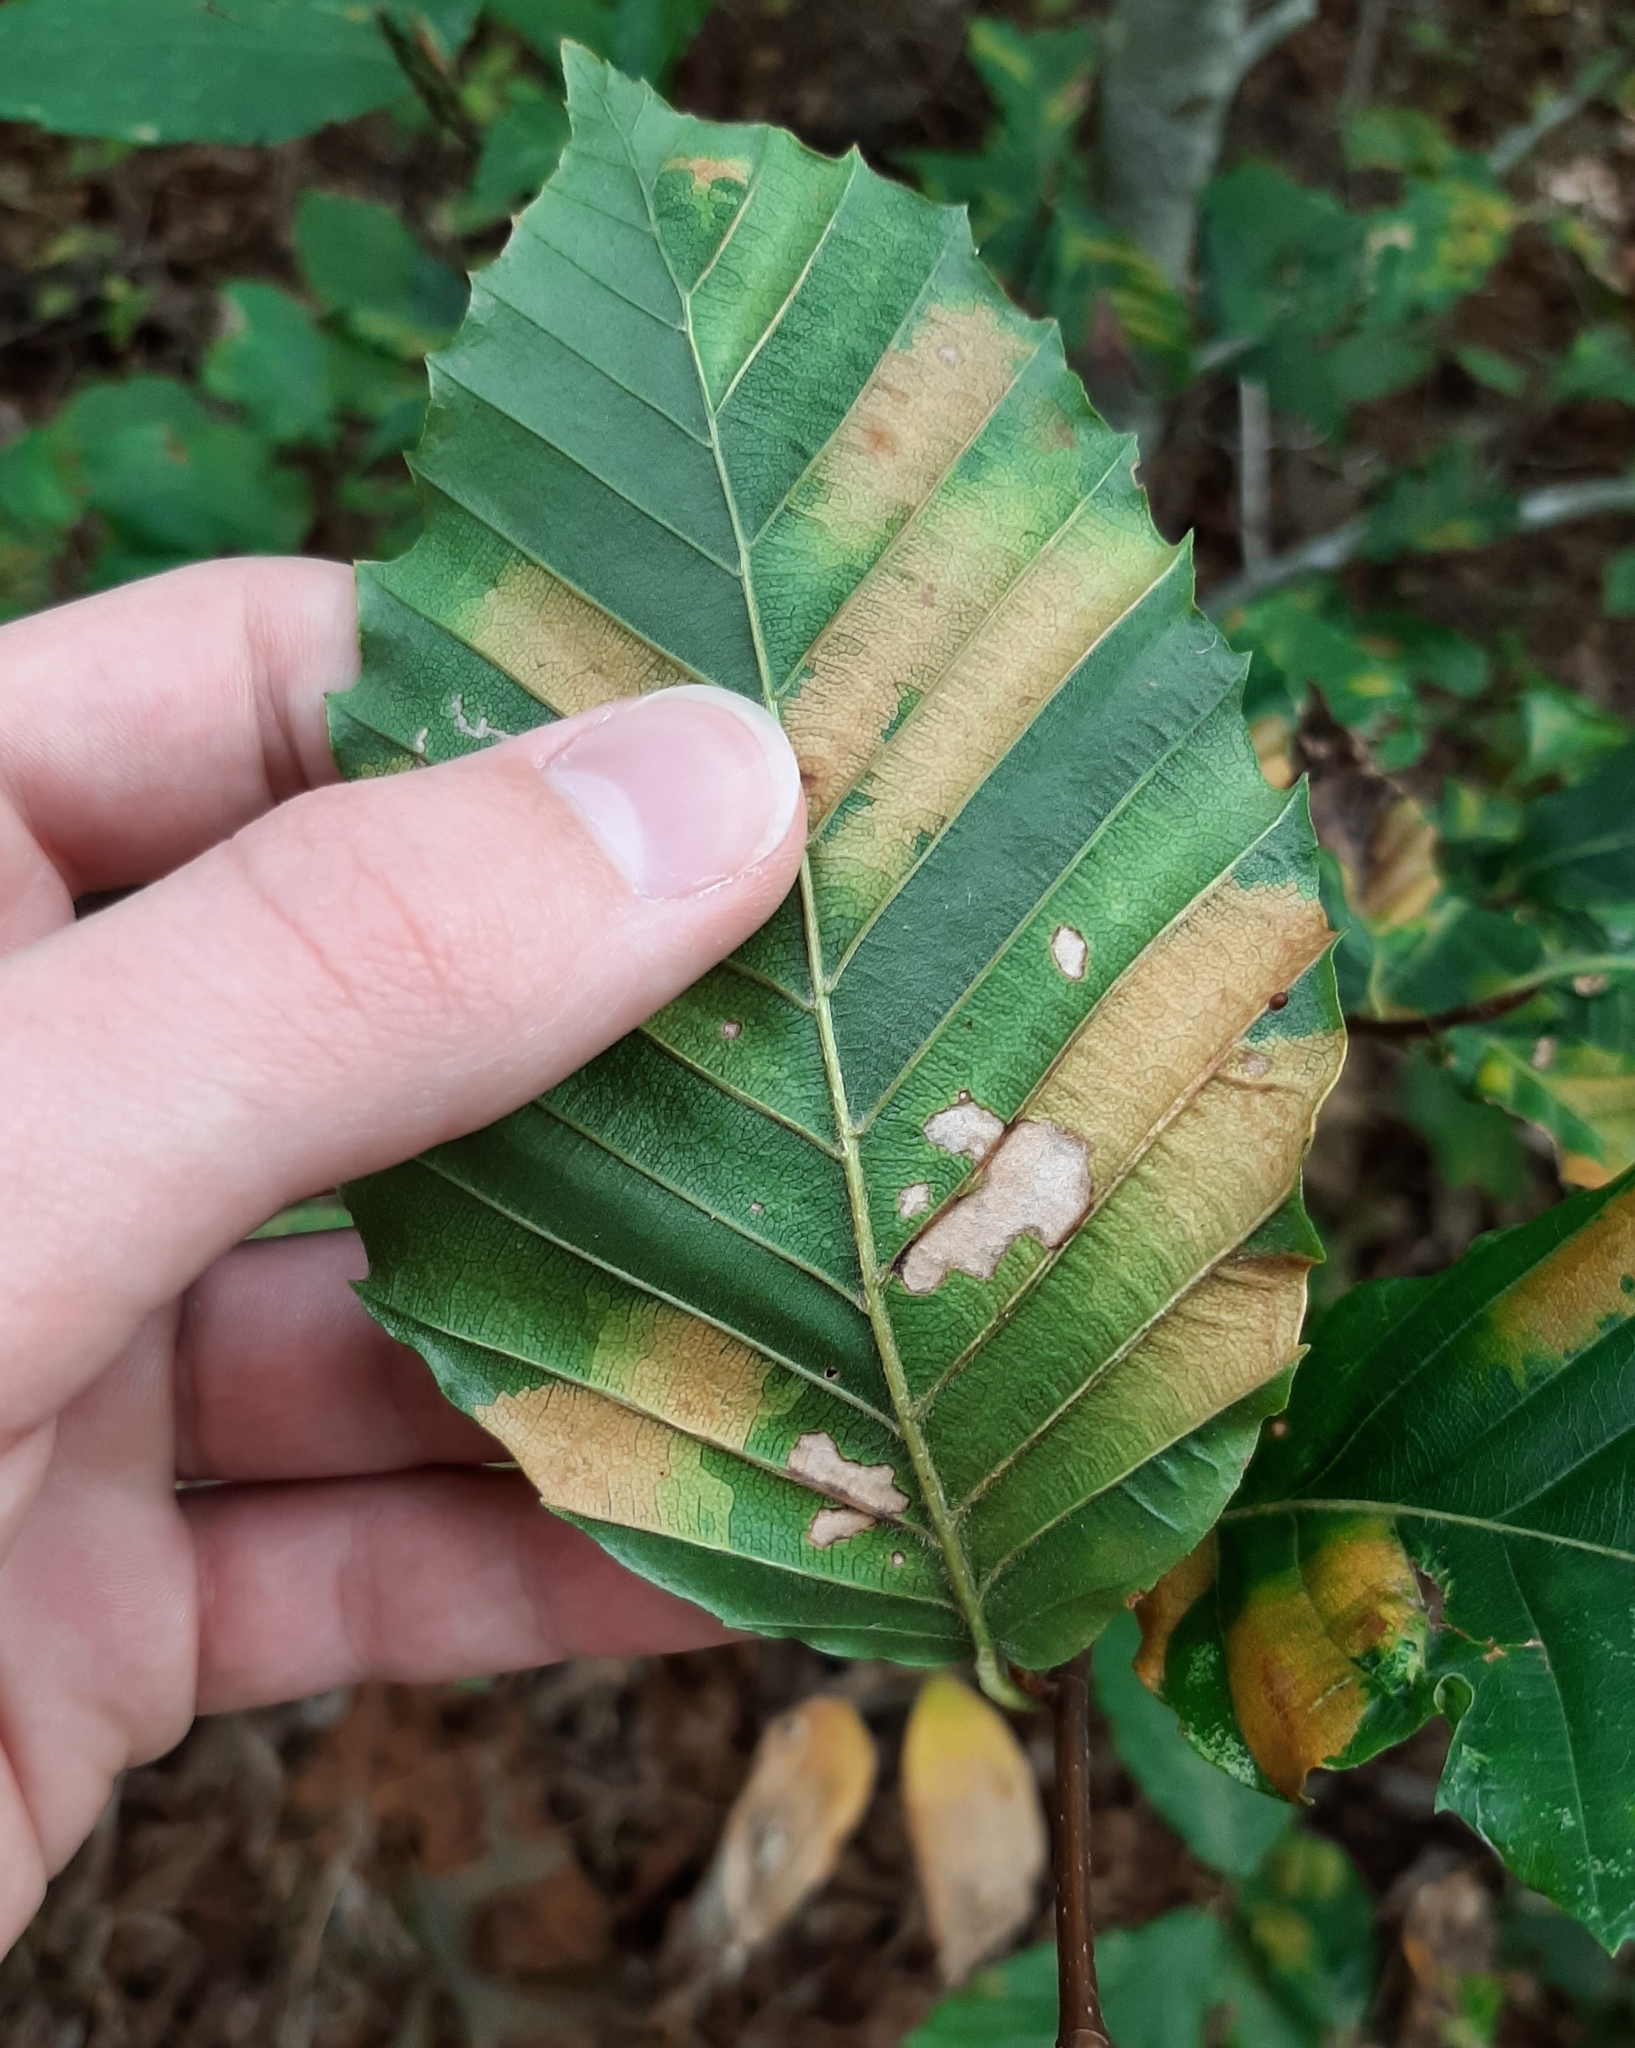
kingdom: Animalia
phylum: Nematoda
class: Chromadorea
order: Rhabditida
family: Anguinidae
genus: Litylenchus
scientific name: Litylenchus crenatae
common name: Beech leaf disease
